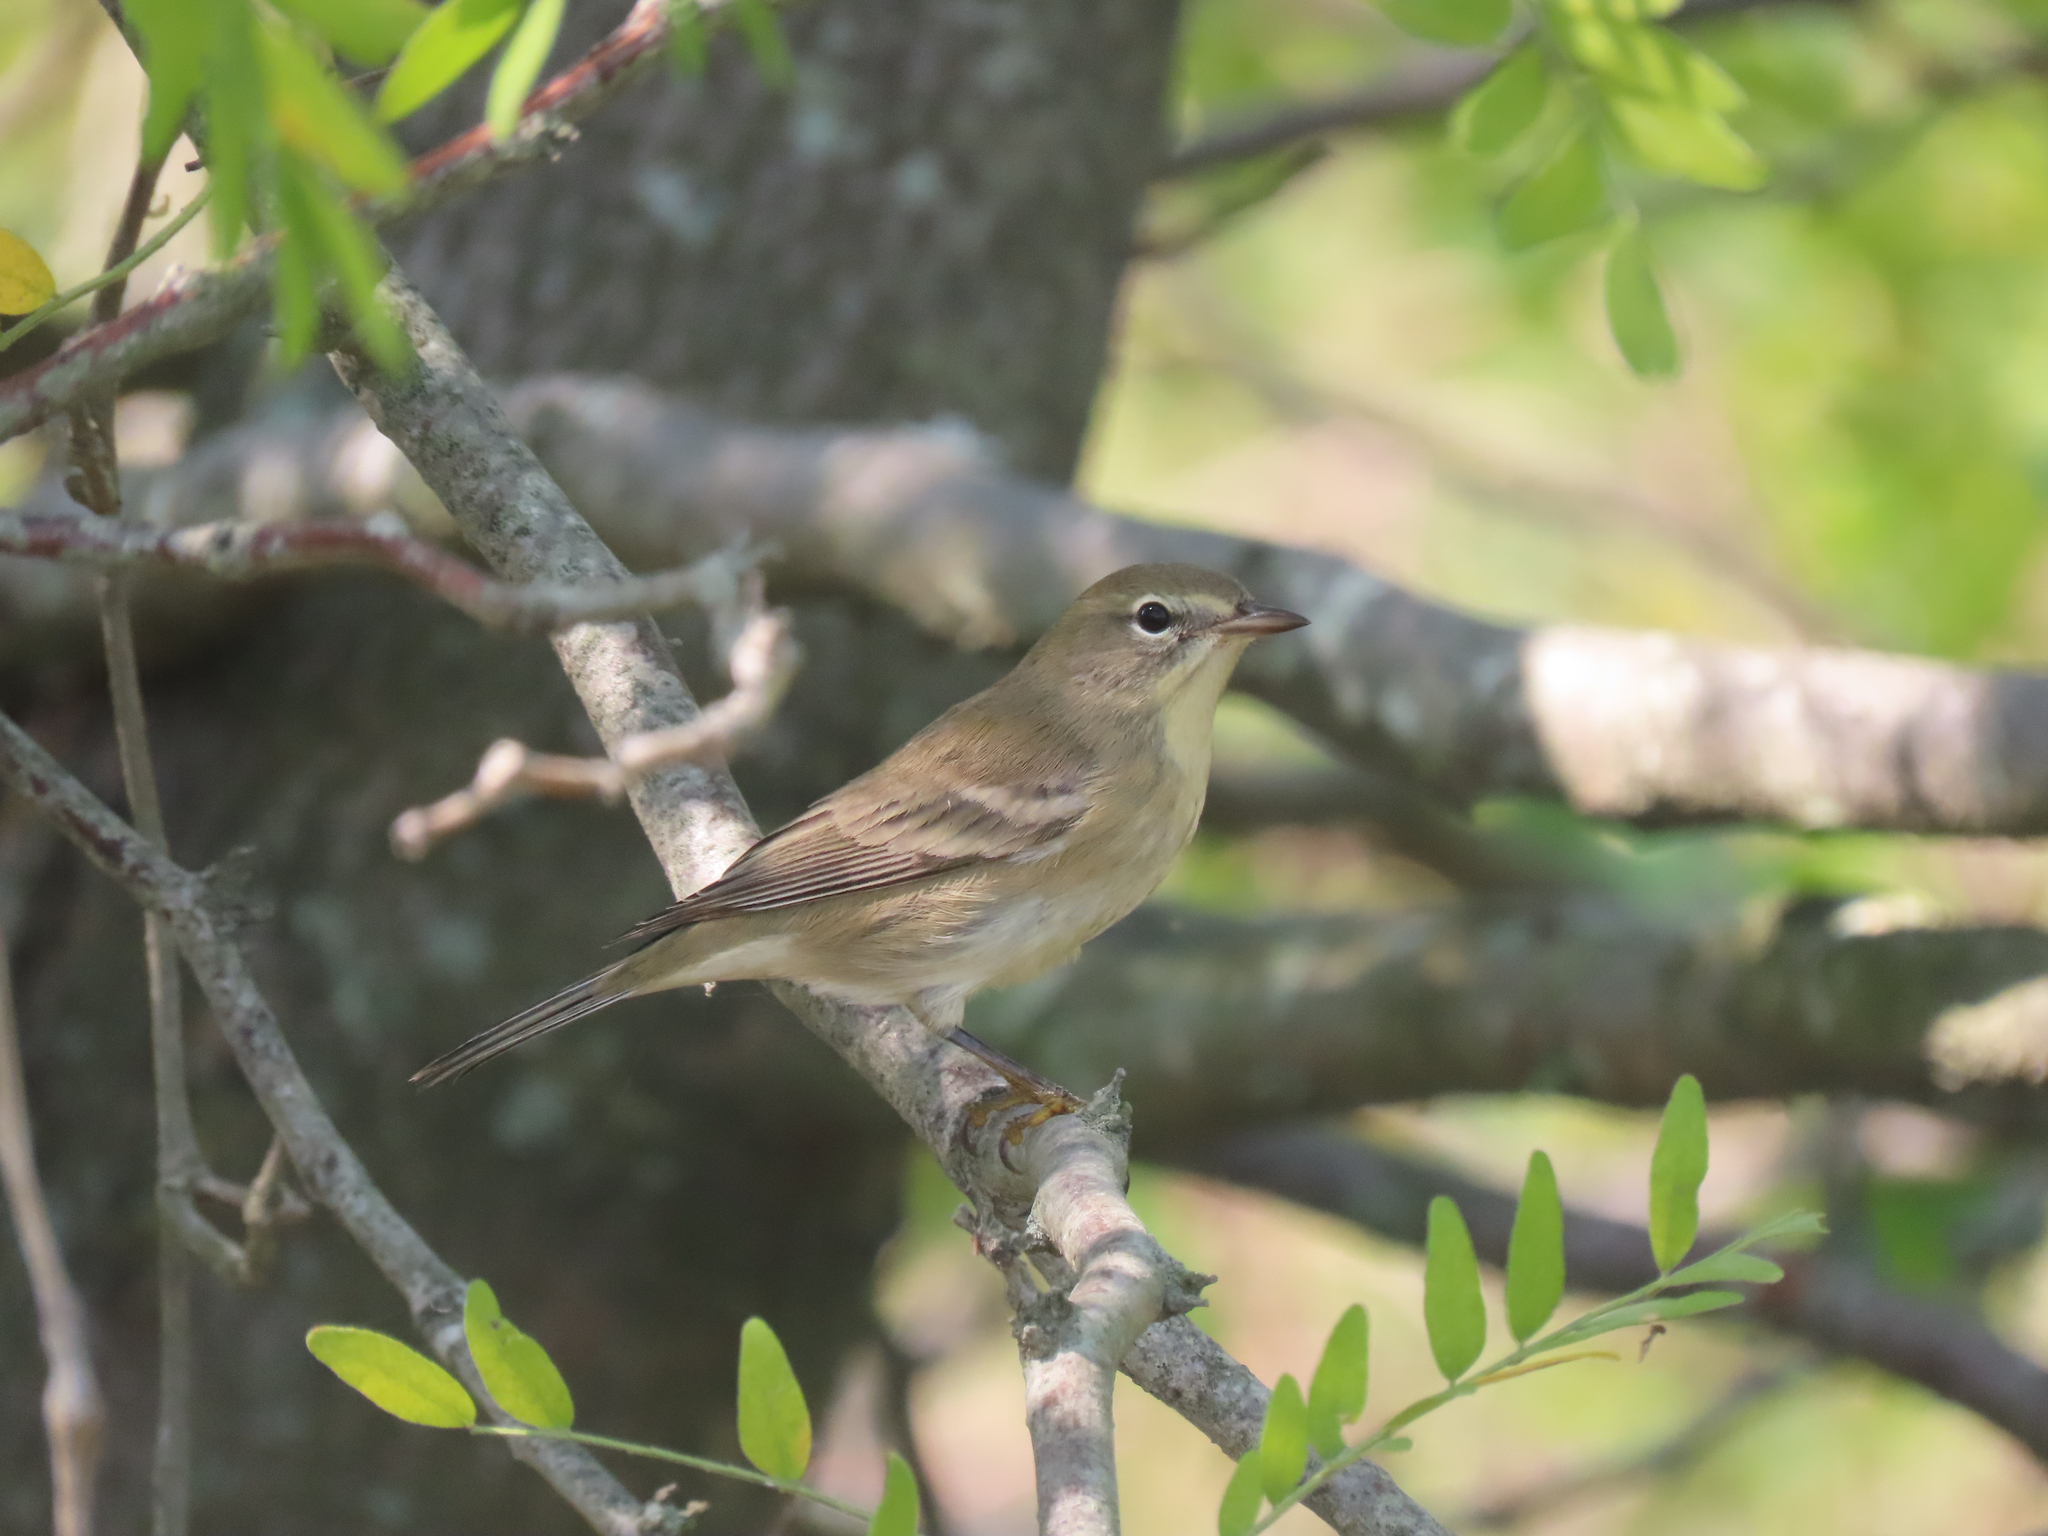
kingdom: Animalia
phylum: Chordata
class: Aves
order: Passeriformes
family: Parulidae
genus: Setophaga
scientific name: Setophaga pinus
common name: Pine warbler
